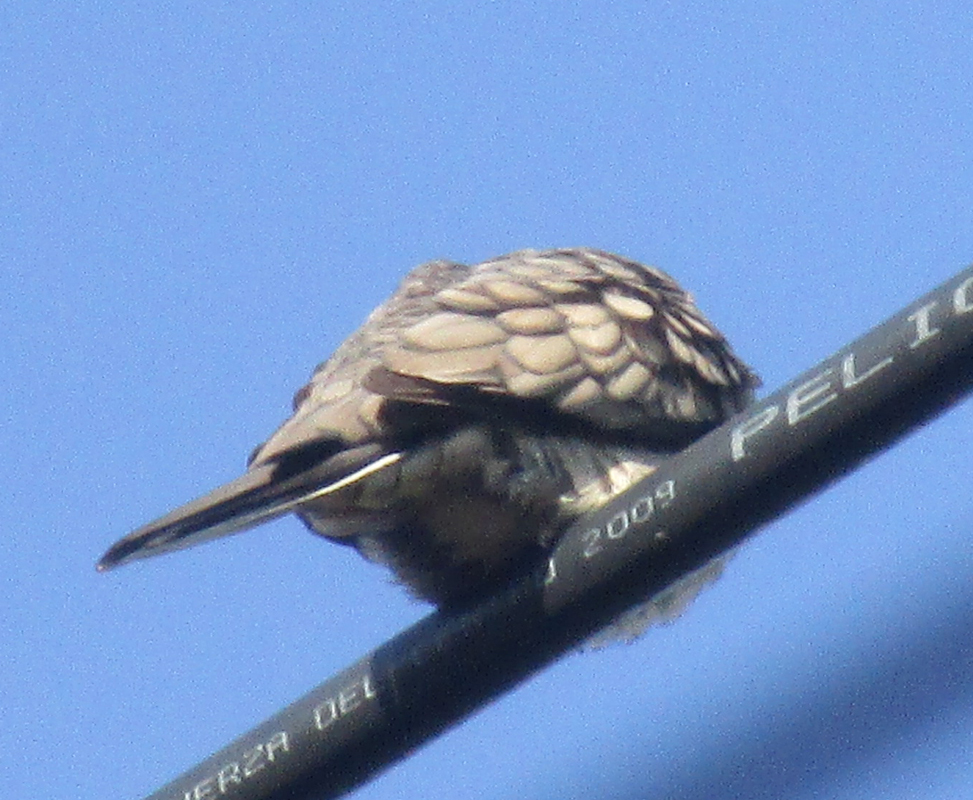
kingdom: Animalia
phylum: Chordata
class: Aves
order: Columbiformes
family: Columbidae
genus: Columbina
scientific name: Columbina inca
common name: Inca dove
